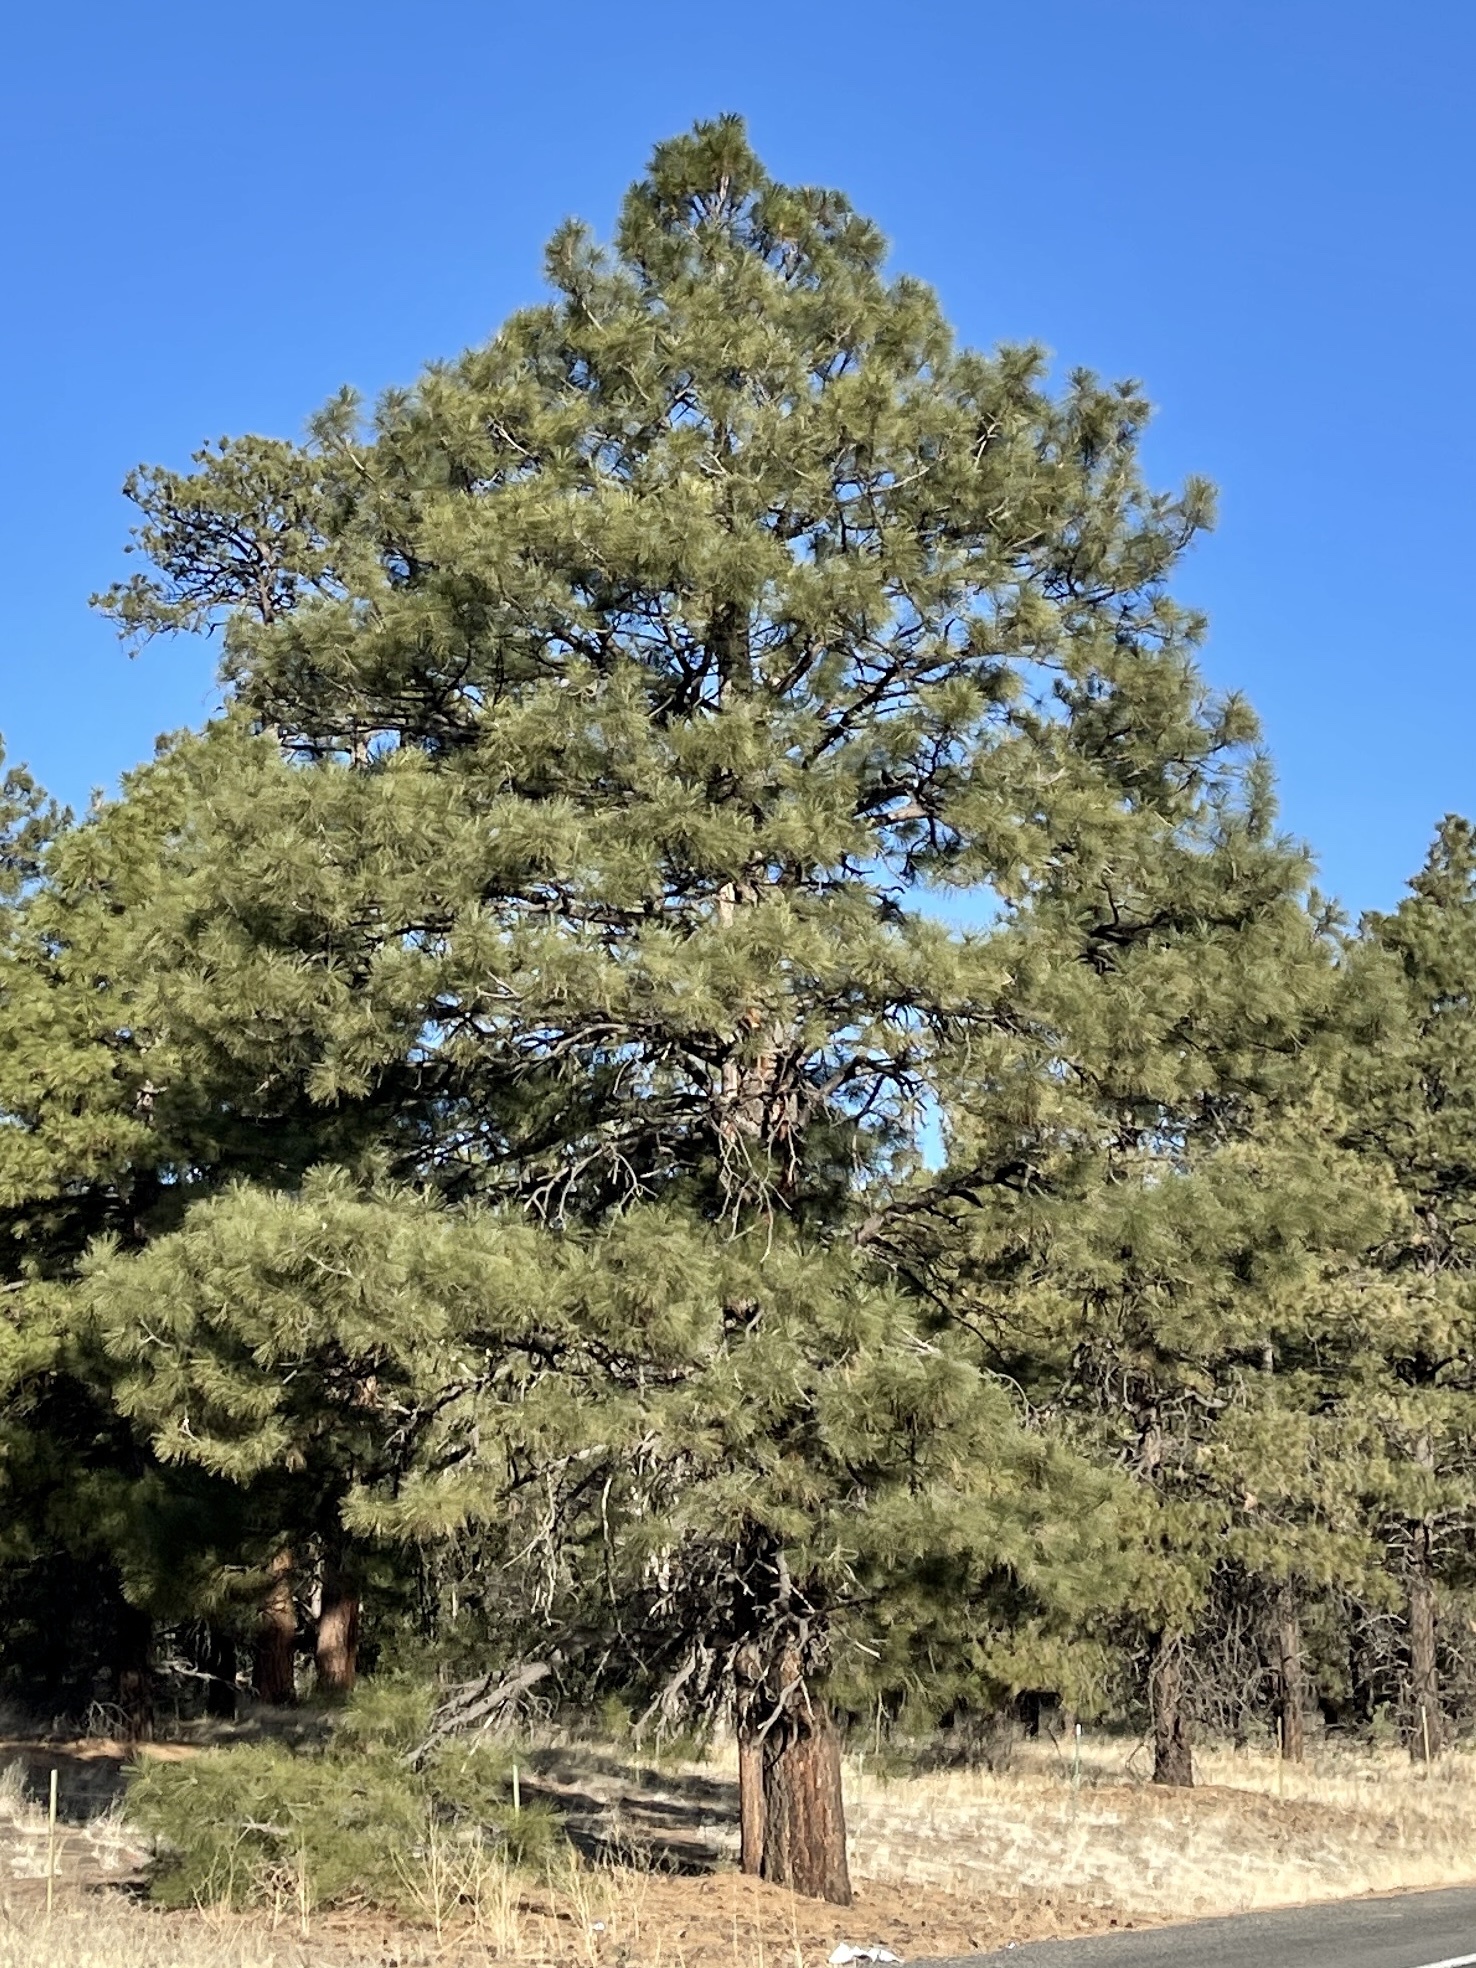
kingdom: Plantae
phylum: Tracheophyta
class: Pinopsida
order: Pinales
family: Pinaceae
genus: Pinus
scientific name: Pinus ponderosa
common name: Western yellow-pine
